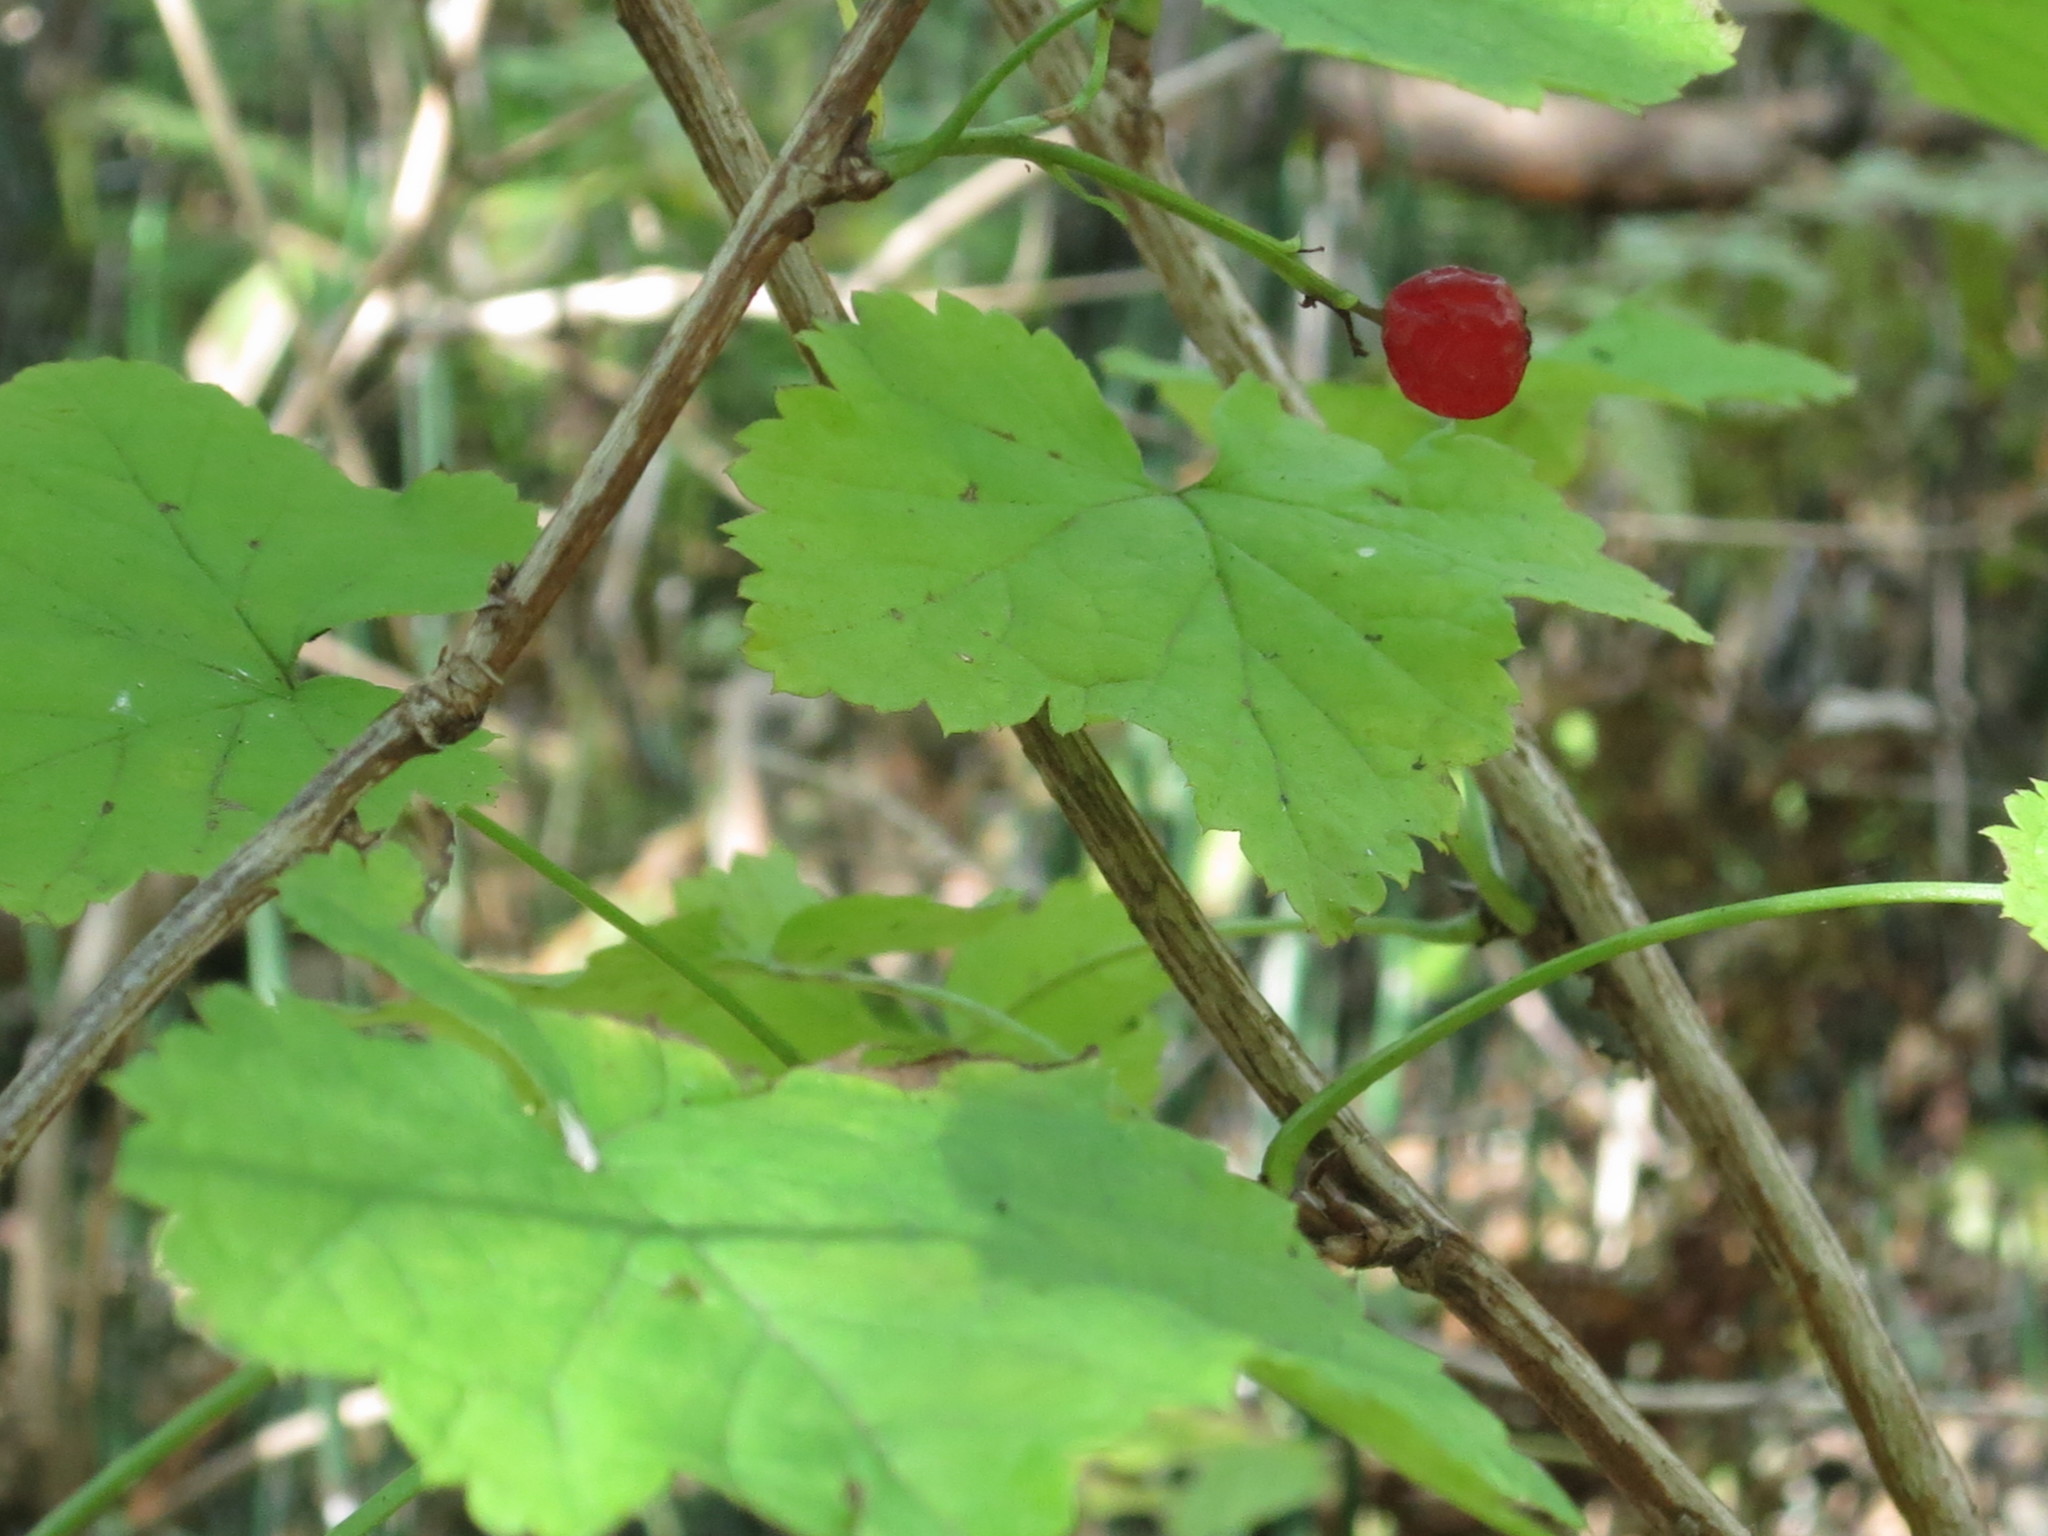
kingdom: Plantae
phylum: Tracheophyta
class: Magnoliopsida
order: Saxifragales
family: Grossulariaceae
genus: Ribes
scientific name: Ribes mandshuricum
